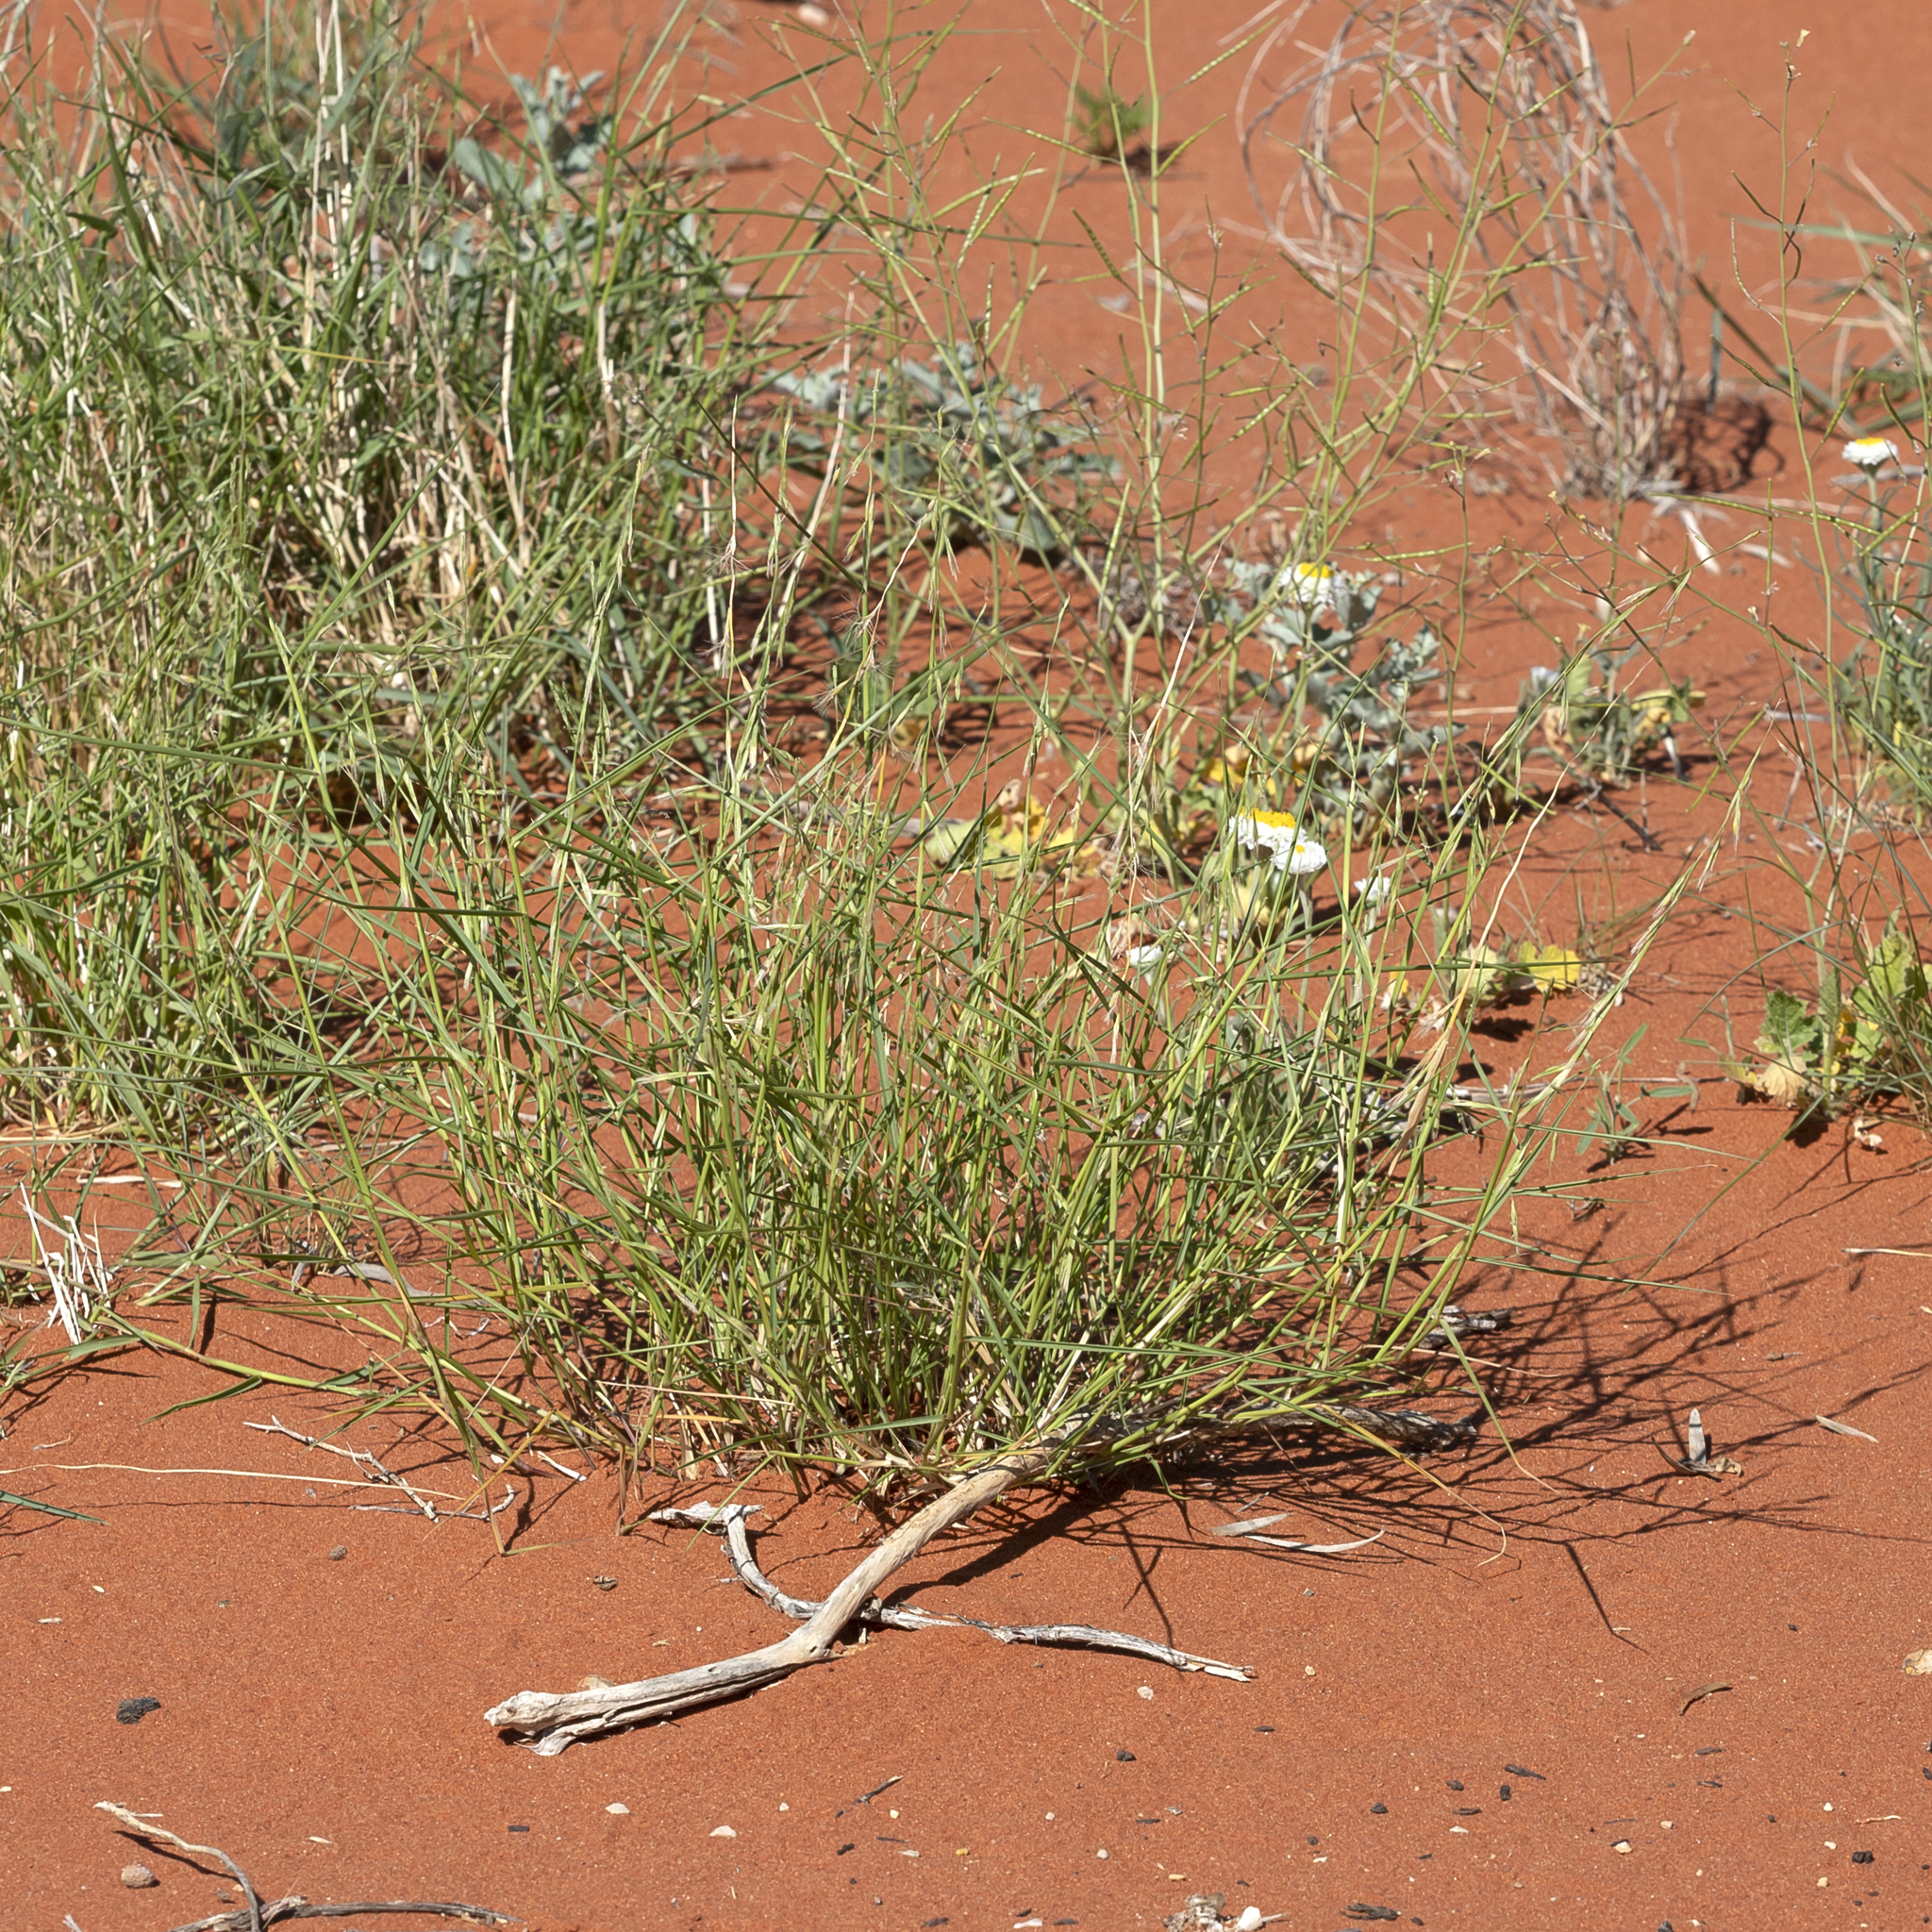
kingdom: Plantae
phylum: Tracheophyta
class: Liliopsida
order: Poales
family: Poaceae
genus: Plagiosetum
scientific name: Plagiosetum refractum
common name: Bristle-brush grass
